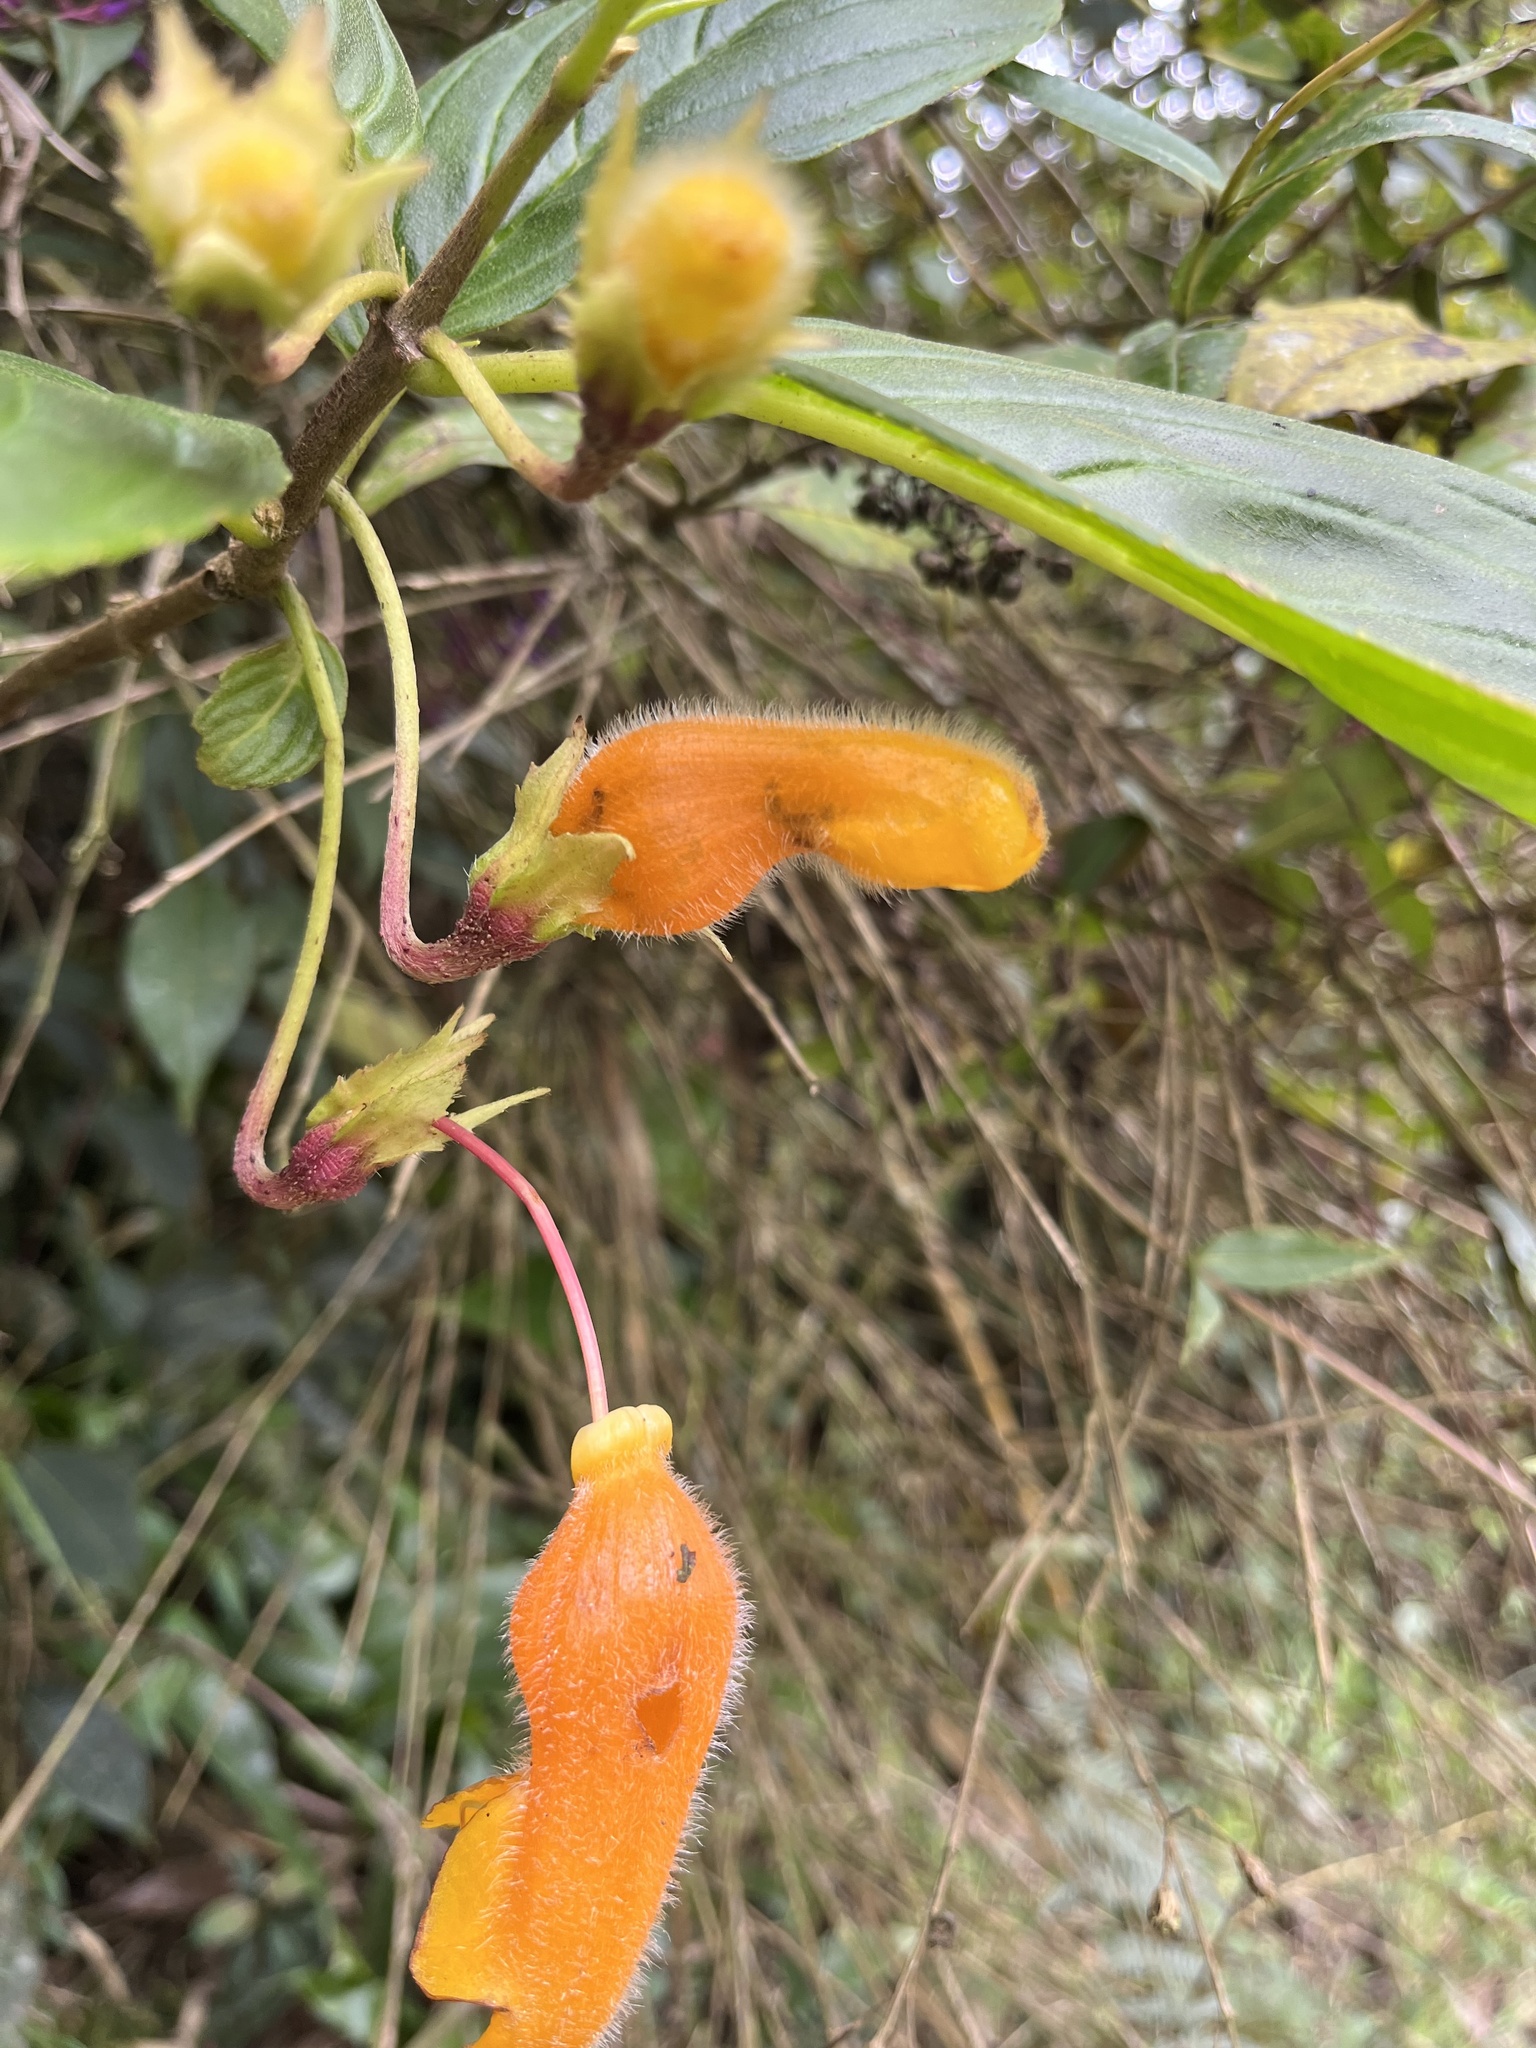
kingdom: Plantae
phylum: Tracheophyta
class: Magnoliopsida
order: Lamiales
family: Gesneriaceae
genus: Columnea
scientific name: Columnea strigosa
